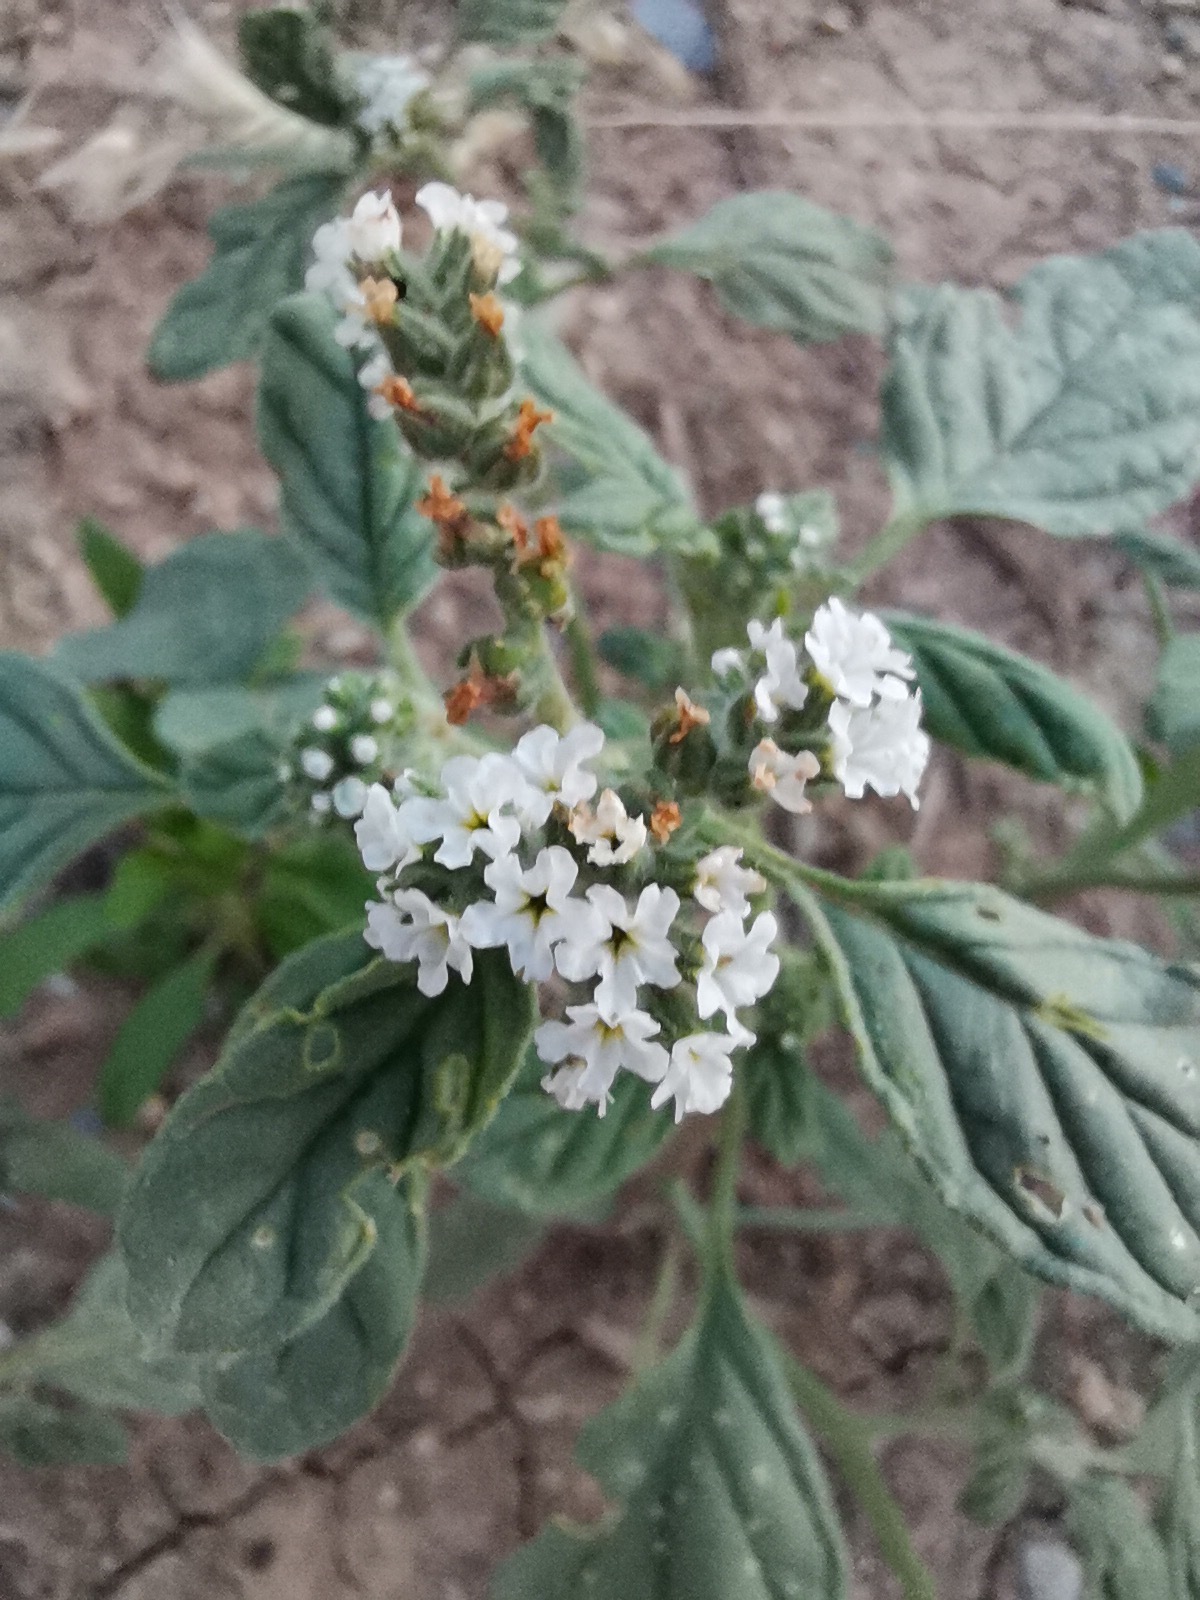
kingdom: Plantae
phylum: Tracheophyta
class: Magnoliopsida
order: Boraginales
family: Heliotropiaceae
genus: Heliotropium
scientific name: Heliotropium europaeum
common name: European heliotrope
